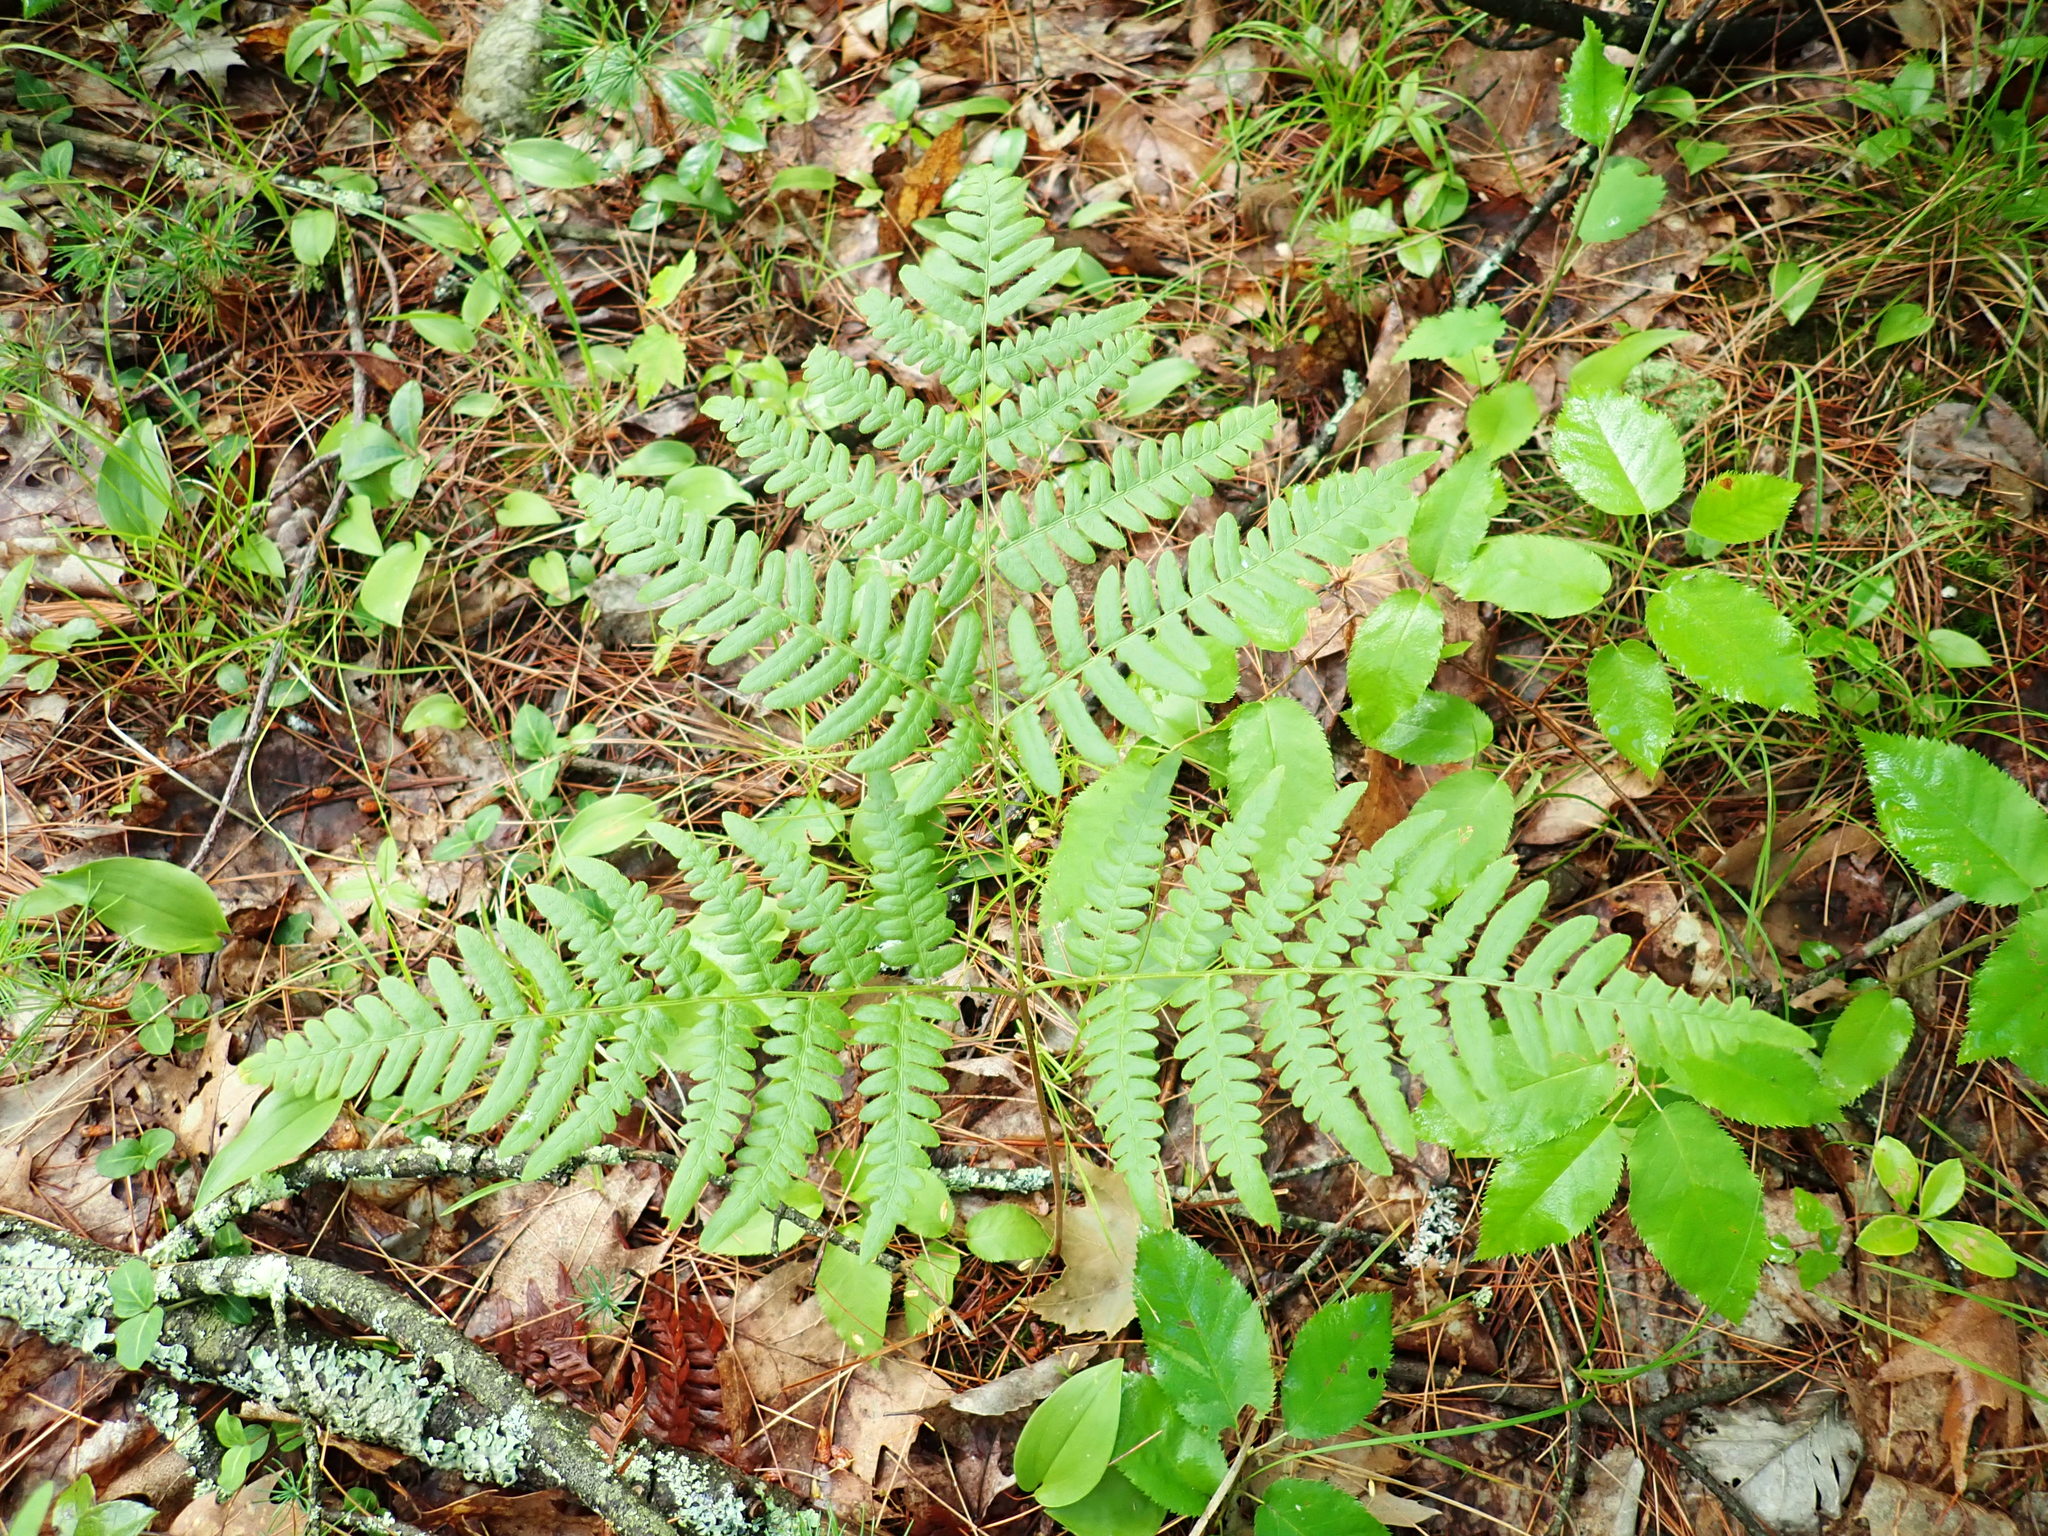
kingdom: Plantae
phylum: Tracheophyta
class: Polypodiopsida
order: Polypodiales
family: Dennstaedtiaceae
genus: Pteridium
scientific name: Pteridium aquilinum
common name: Bracken
